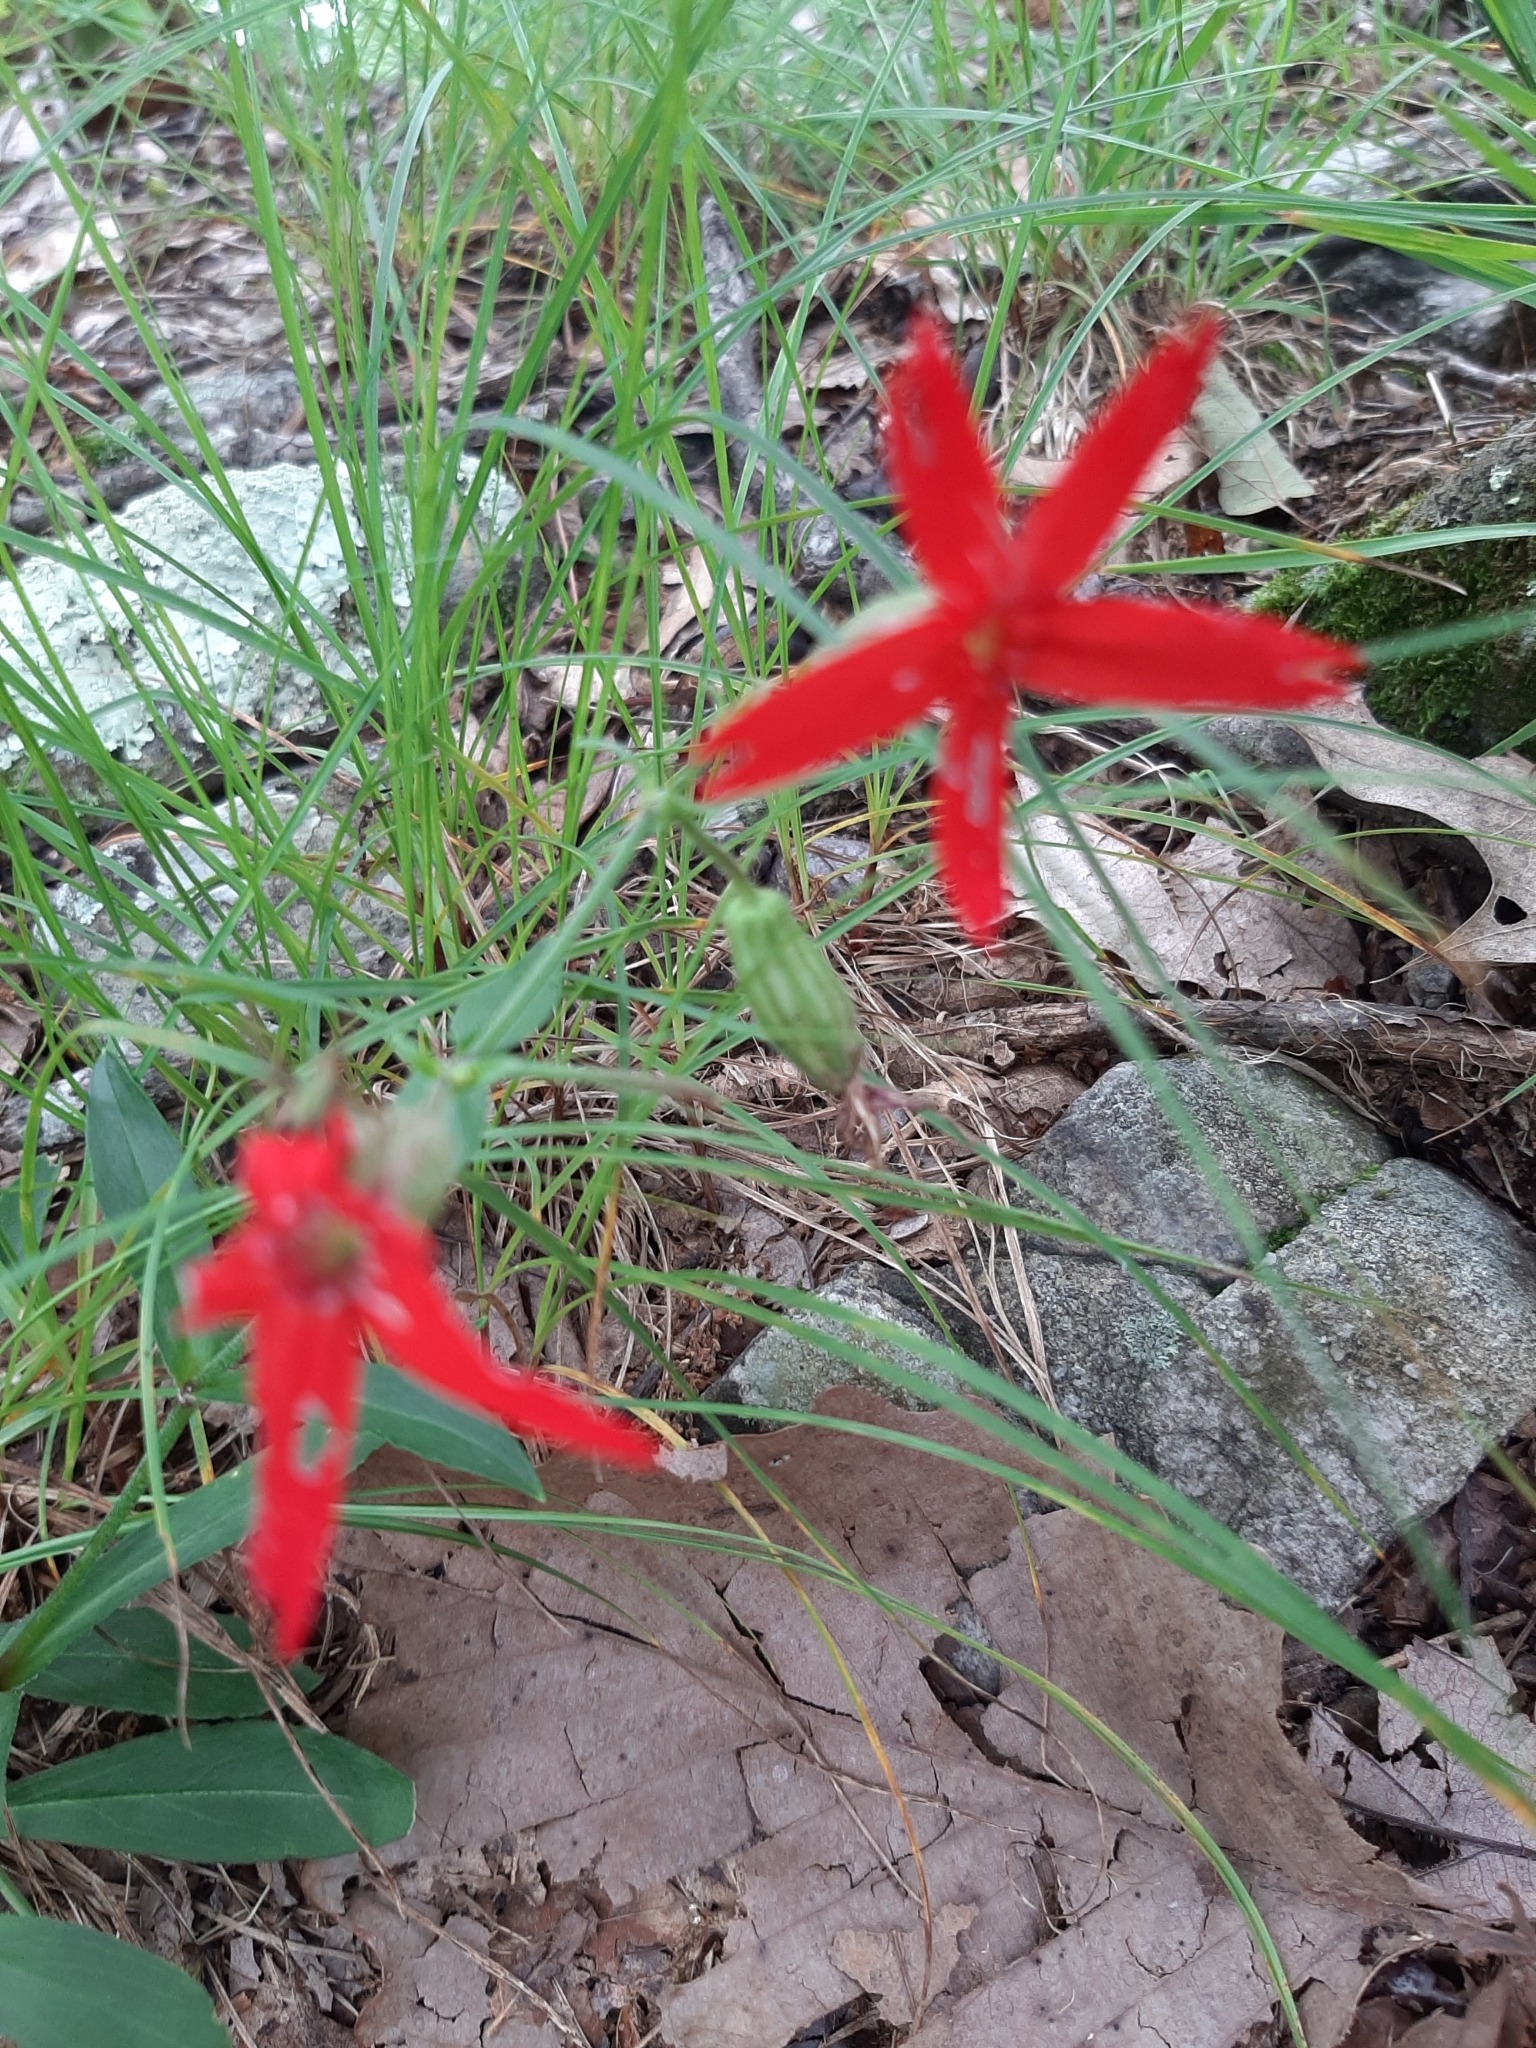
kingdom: Plantae
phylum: Tracheophyta
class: Magnoliopsida
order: Caryophyllales
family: Caryophyllaceae
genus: Silene
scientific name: Silene virginica
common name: Fire-pink
